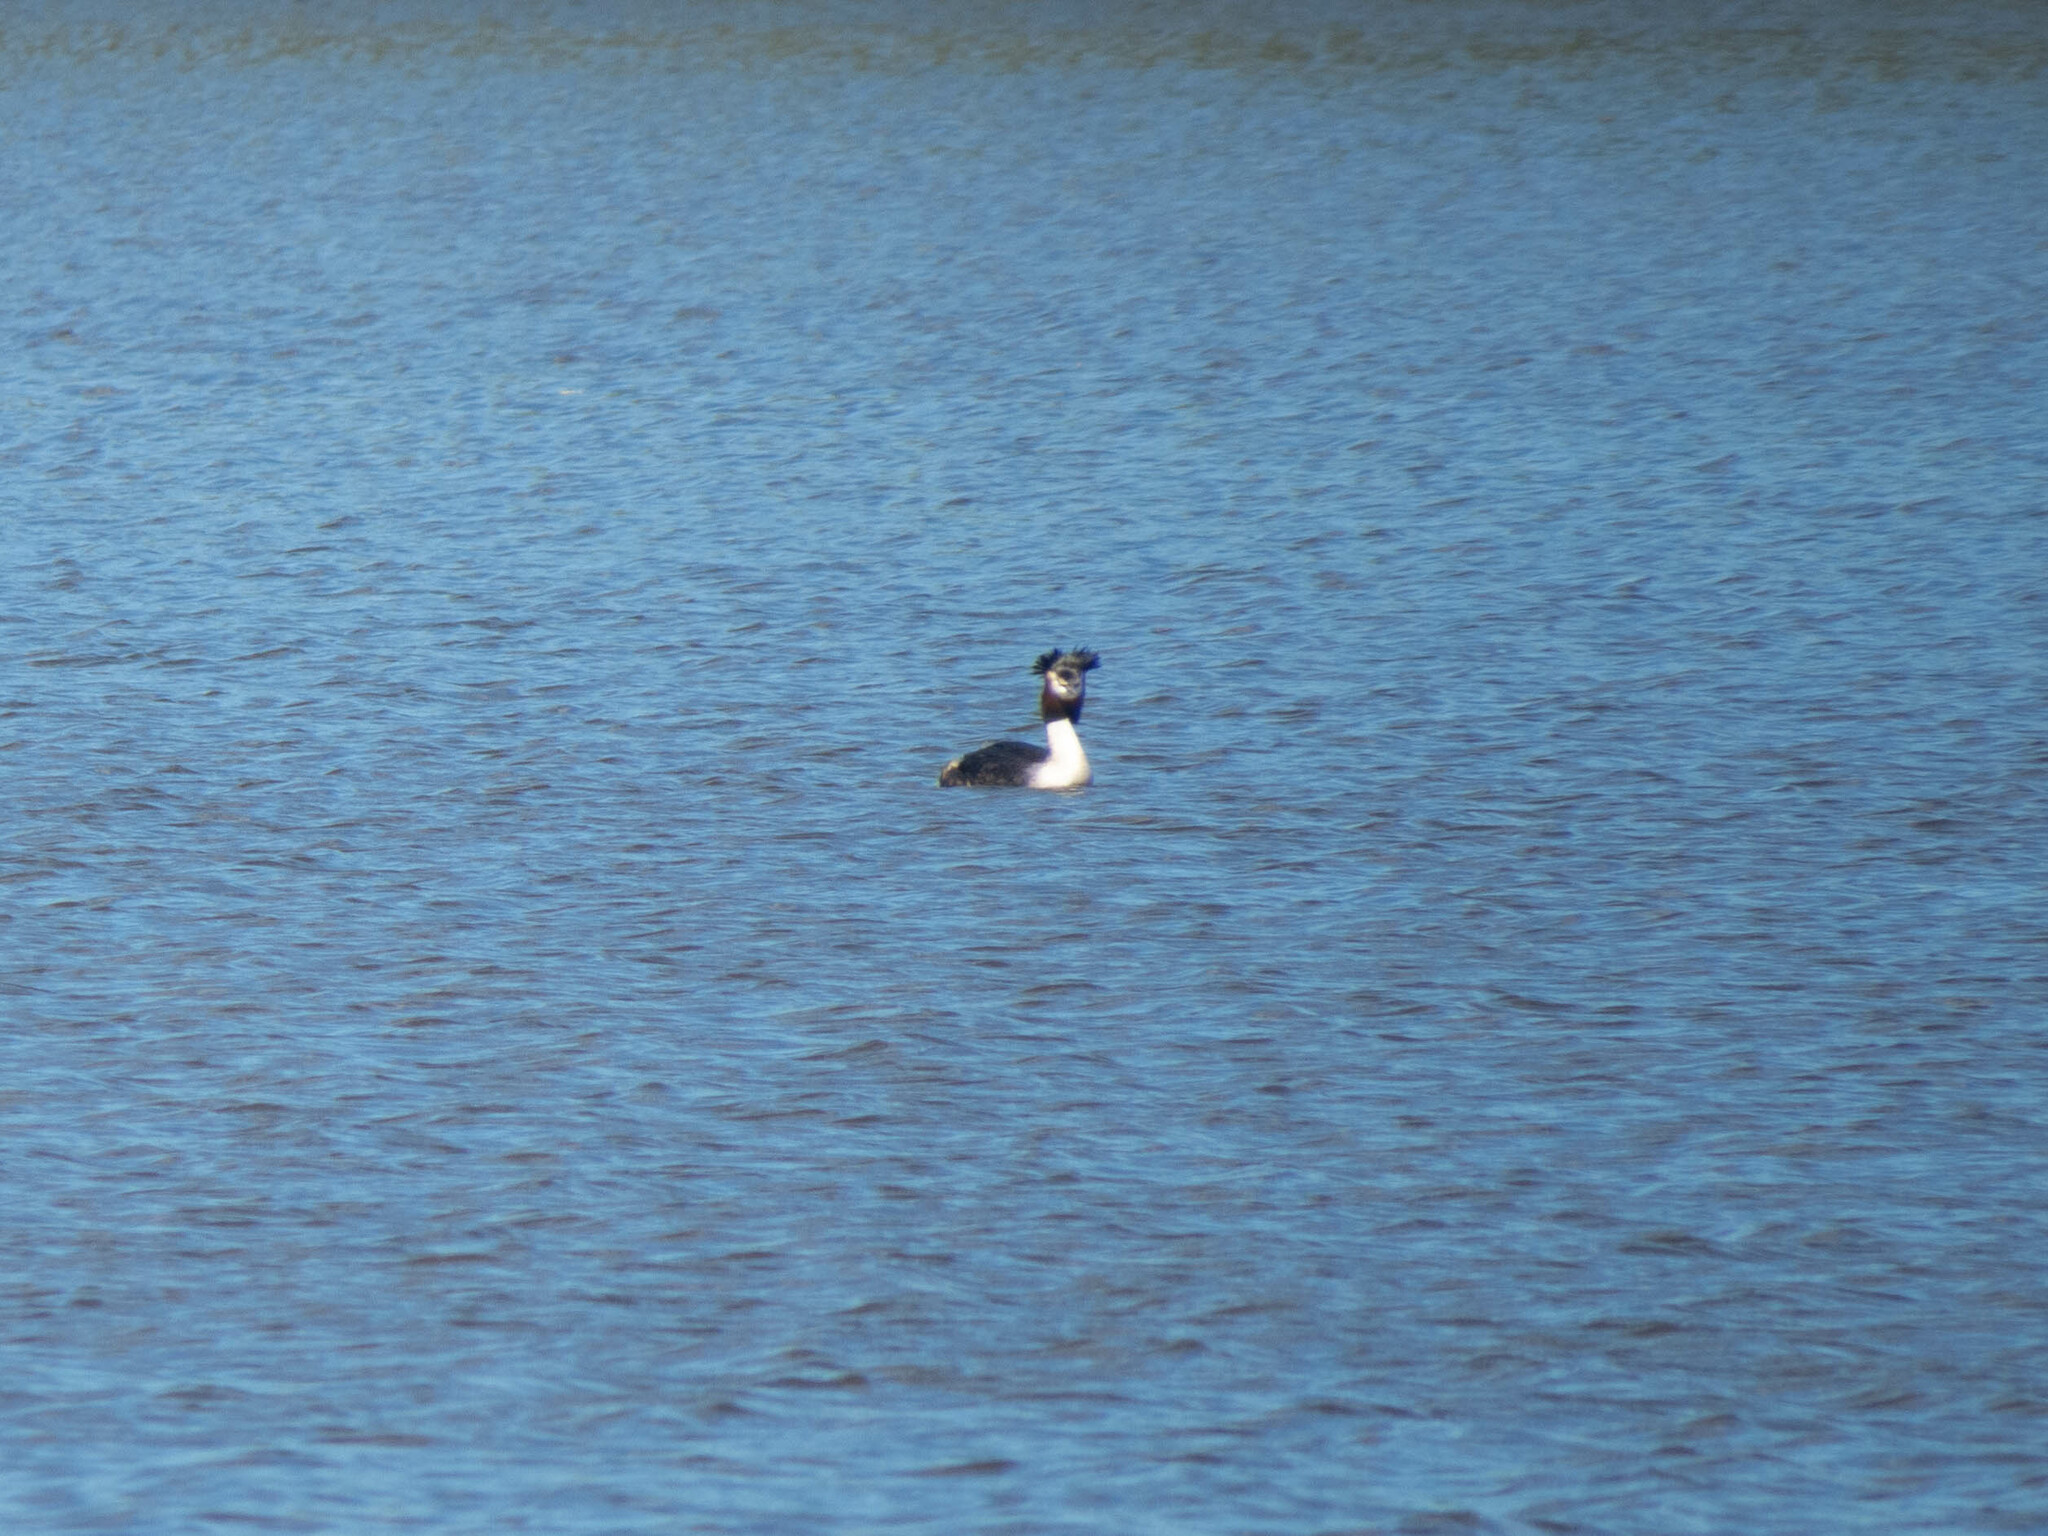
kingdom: Animalia
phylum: Chordata
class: Aves
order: Podicipediformes
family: Podicipedidae
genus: Podiceps
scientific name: Podiceps cristatus
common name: Great crested grebe
